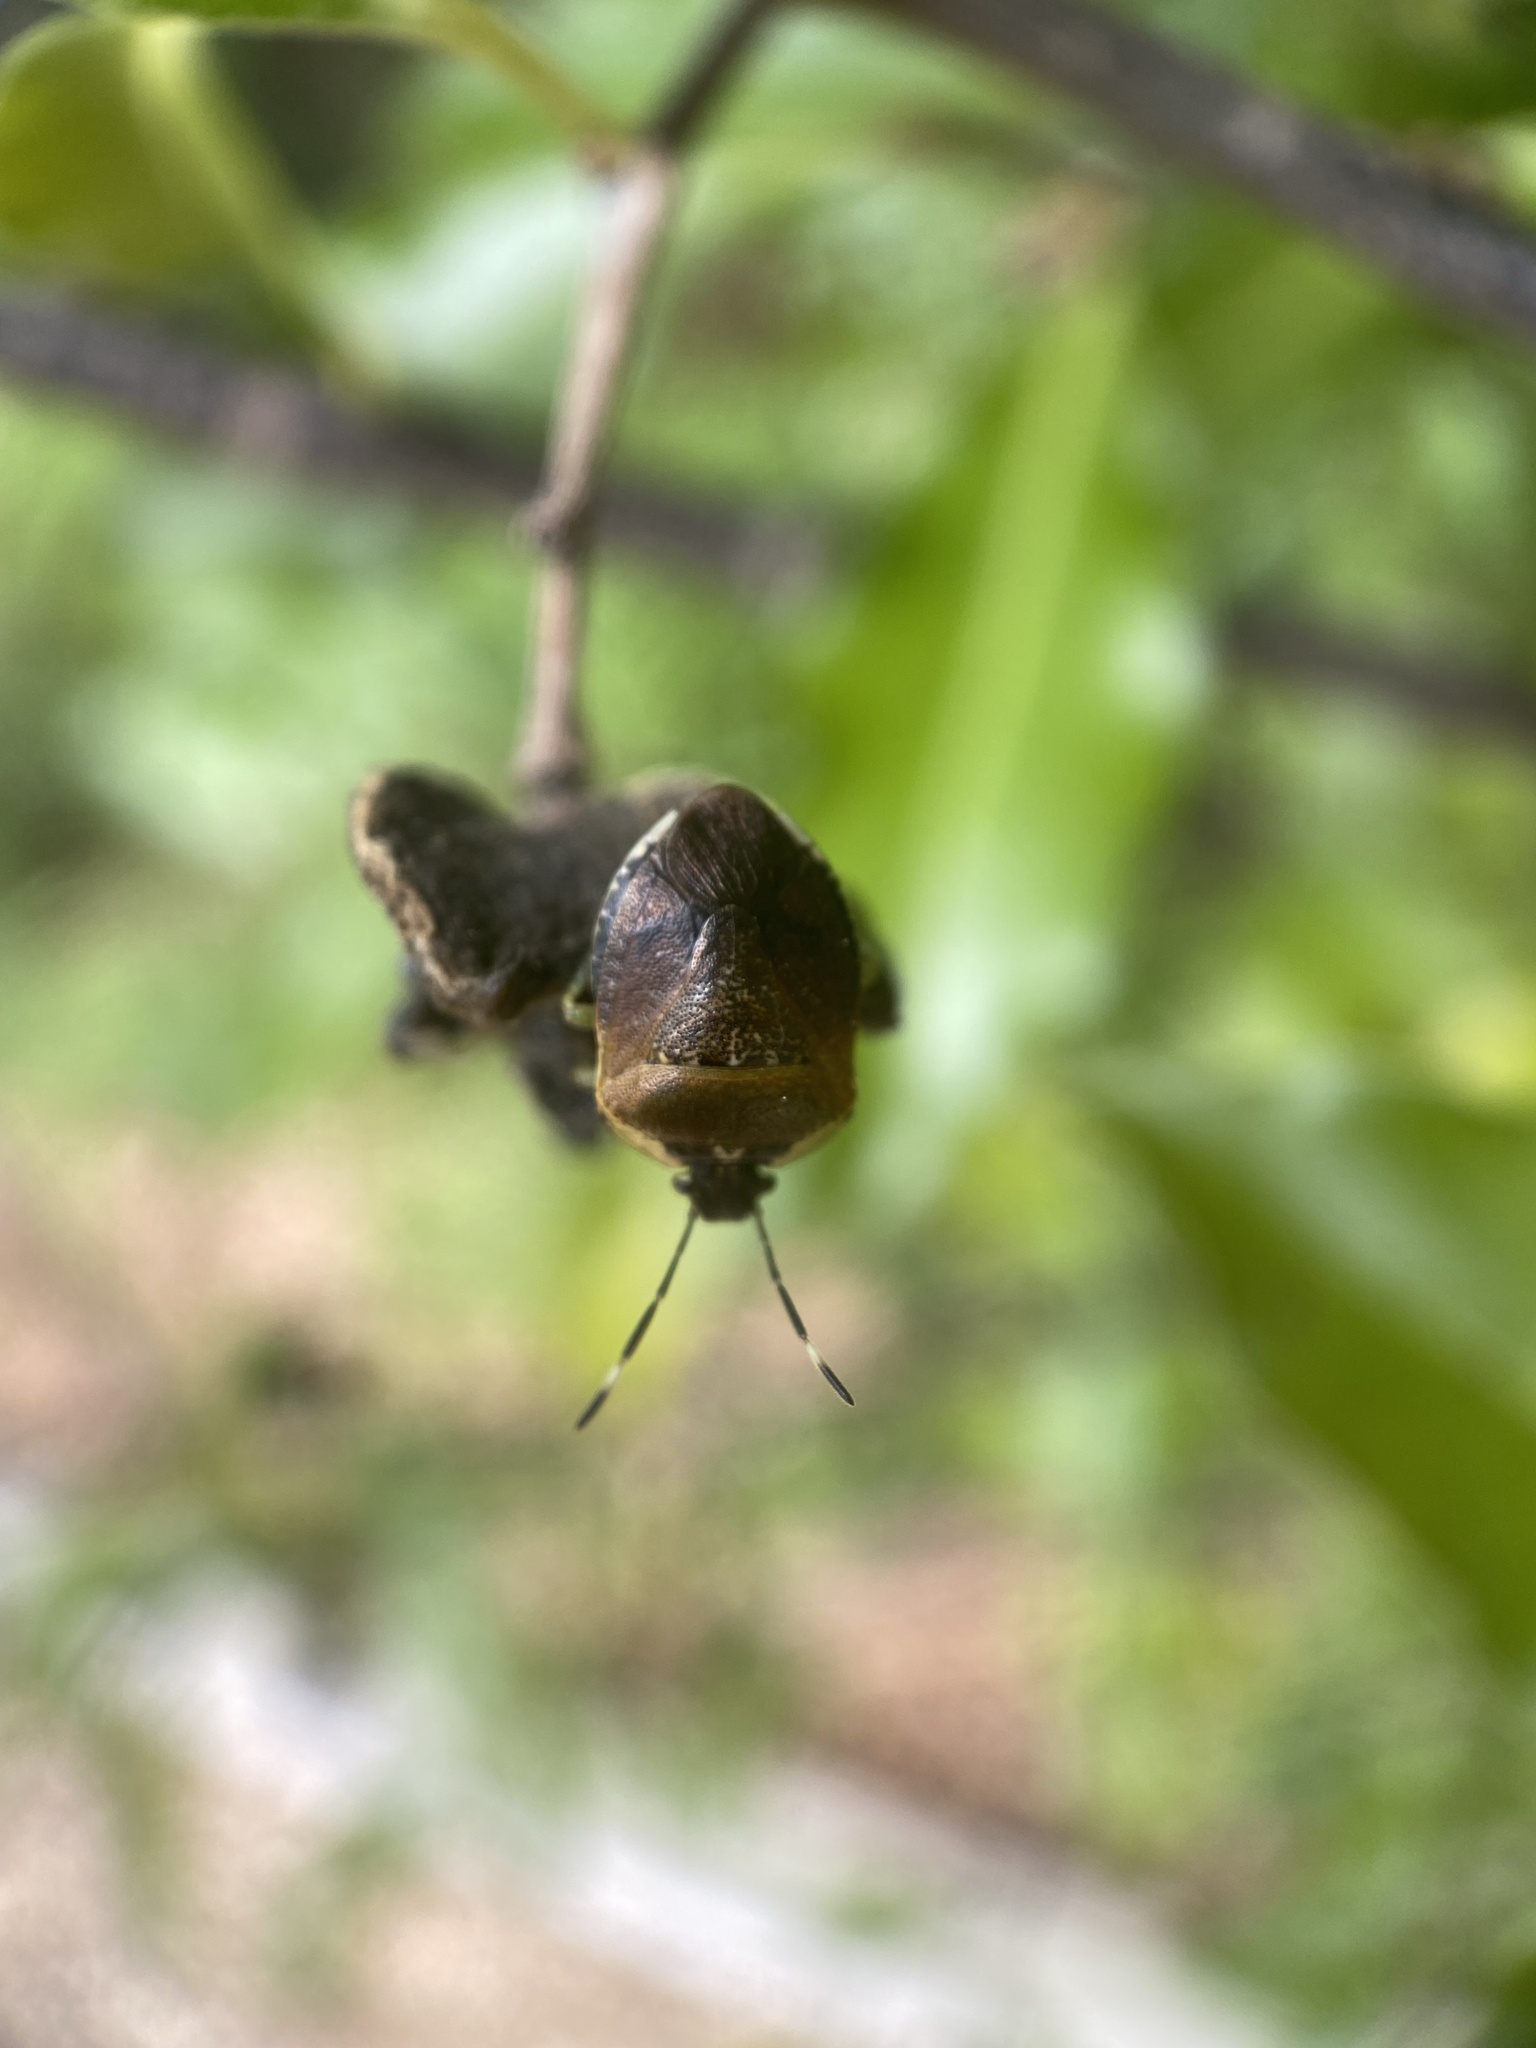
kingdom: Animalia
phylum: Arthropoda
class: Insecta
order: Hemiptera
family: Pentatomidae
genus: Monteithiella
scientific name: Monteithiella
